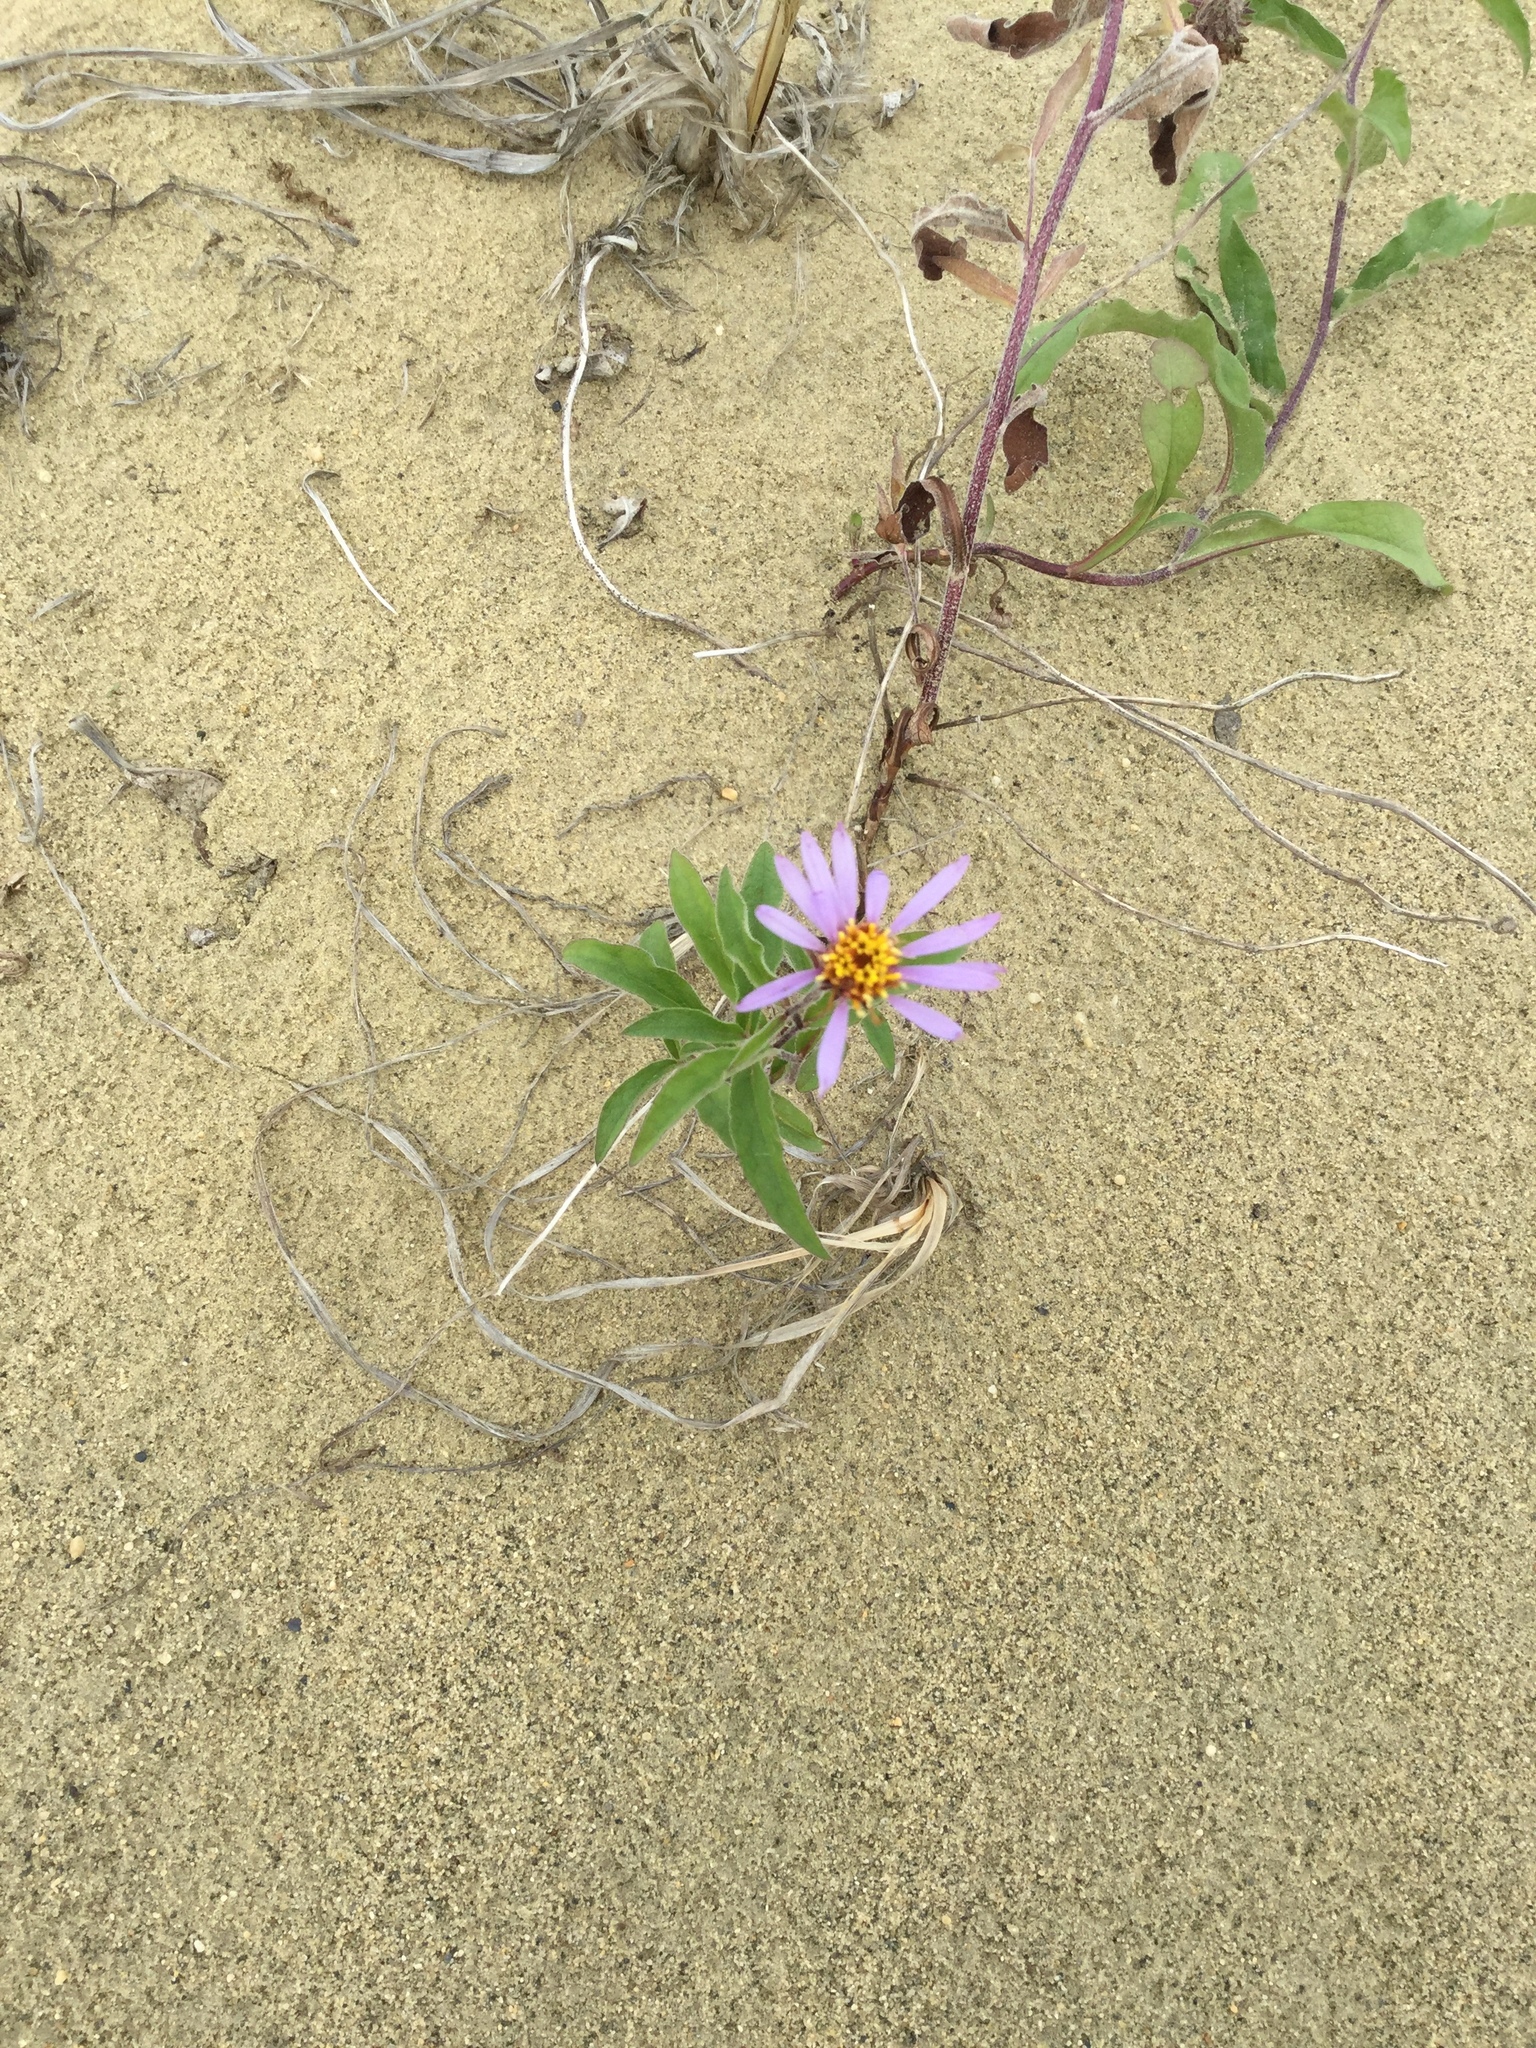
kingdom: Plantae
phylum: Tracheophyta
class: Magnoliopsida
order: Asterales
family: Asteraceae
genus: Eurybia
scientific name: Eurybia sibirica
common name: Arctic aster
